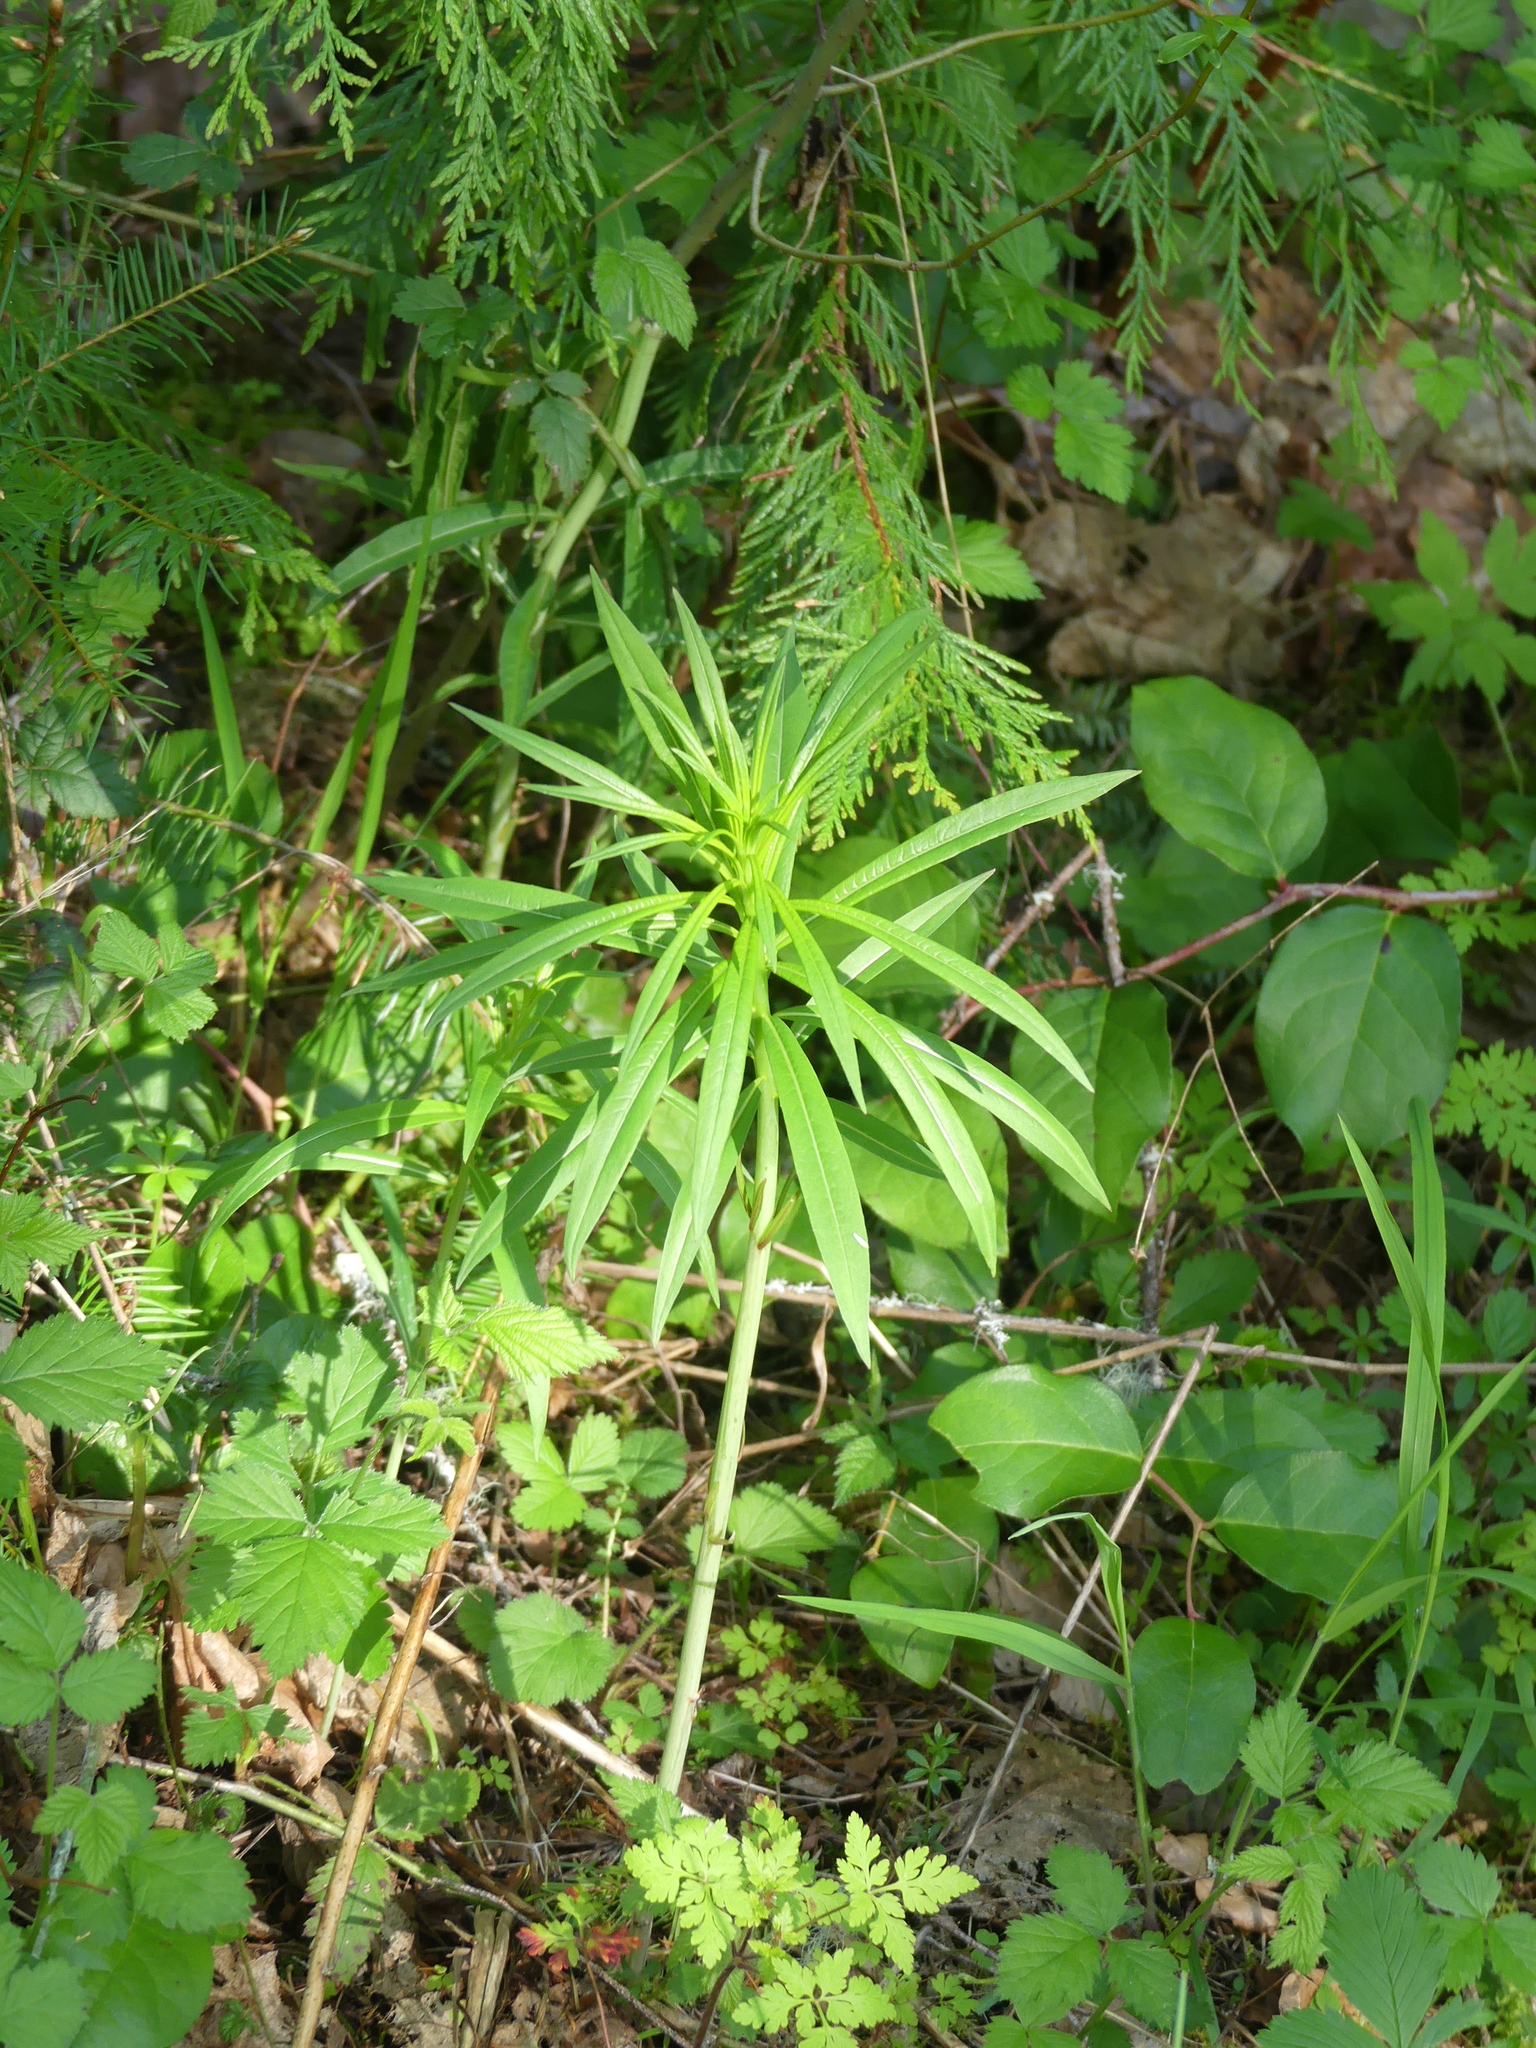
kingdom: Plantae
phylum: Tracheophyta
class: Magnoliopsida
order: Myrtales
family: Onagraceae
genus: Chamaenerion
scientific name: Chamaenerion angustifolium
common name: Fireweed
